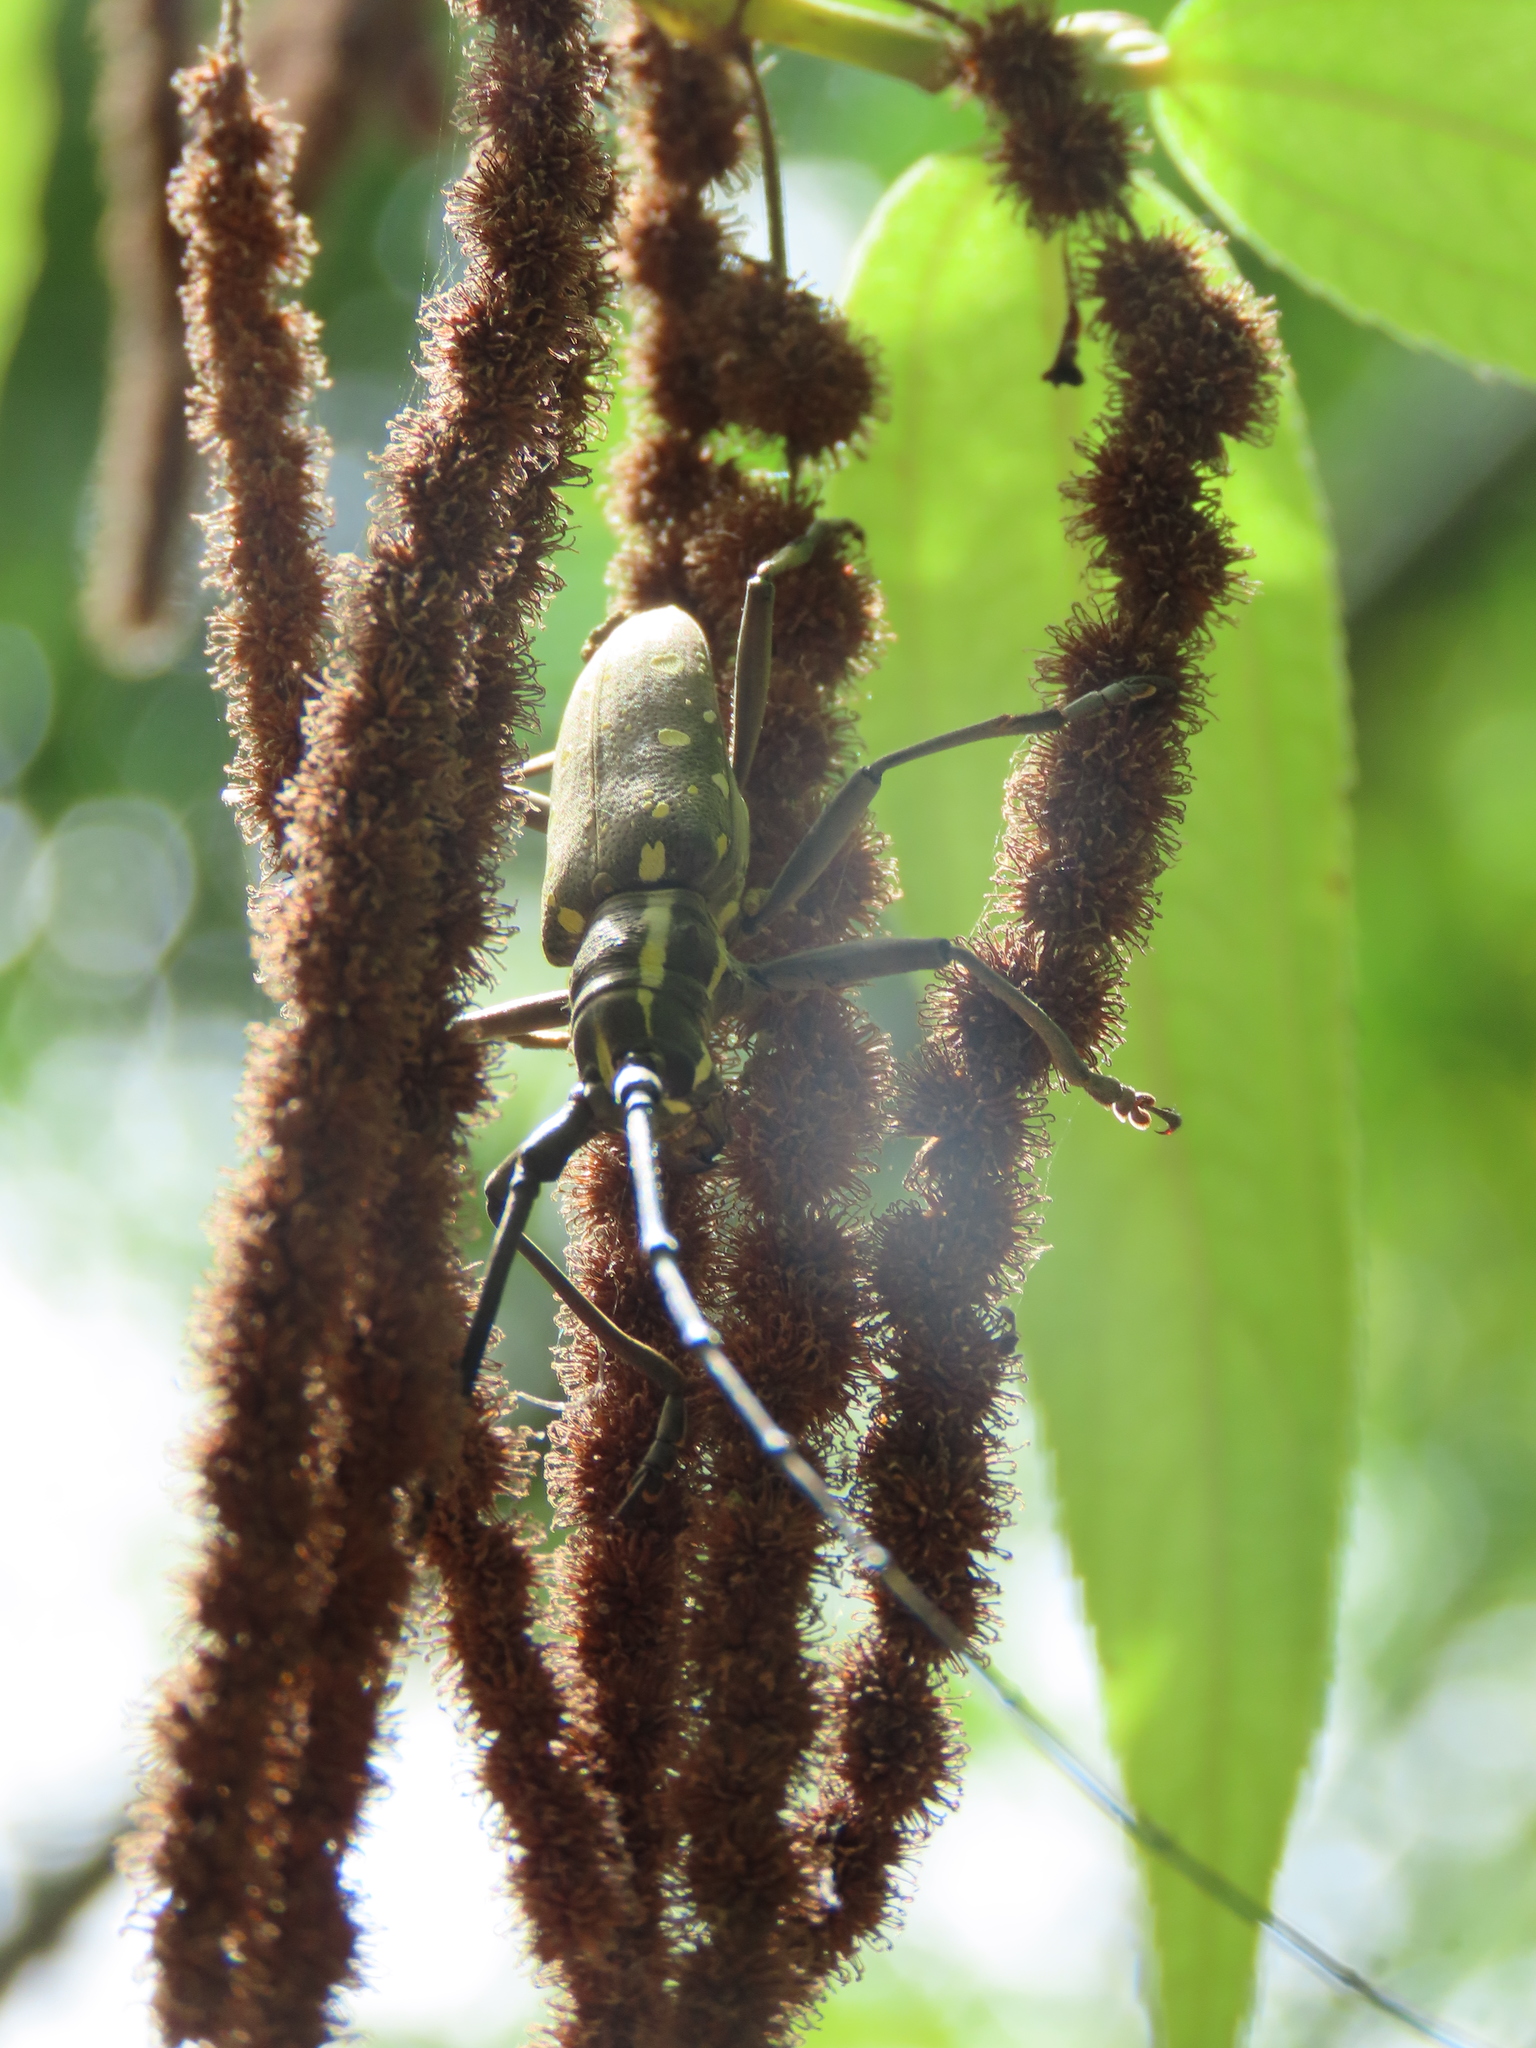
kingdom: Animalia
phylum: Arthropoda
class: Insecta
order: Coleoptera
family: Cerambycidae
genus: Psacothea
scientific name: Psacothea hilaris
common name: Yellow-spotted longicorn beetle
